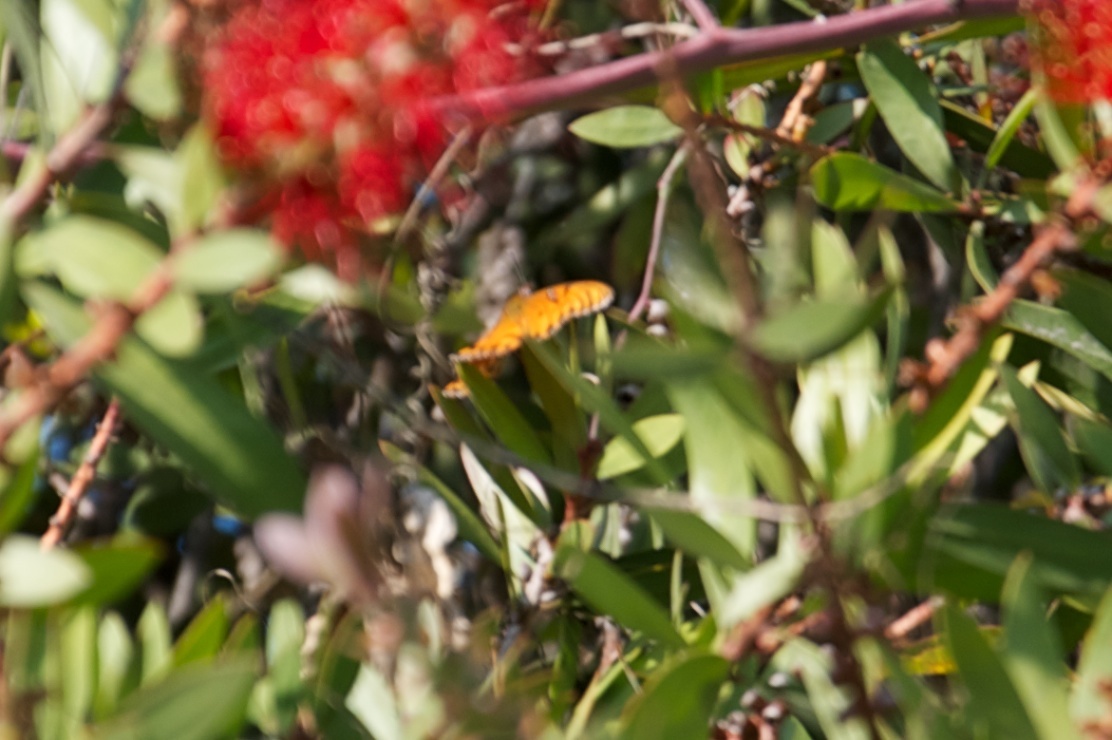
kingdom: Animalia
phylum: Arthropoda
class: Insecta
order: Lepidoptera
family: Nymphalidae
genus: Dione
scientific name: Dione vanillae
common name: Gulf fritillary
